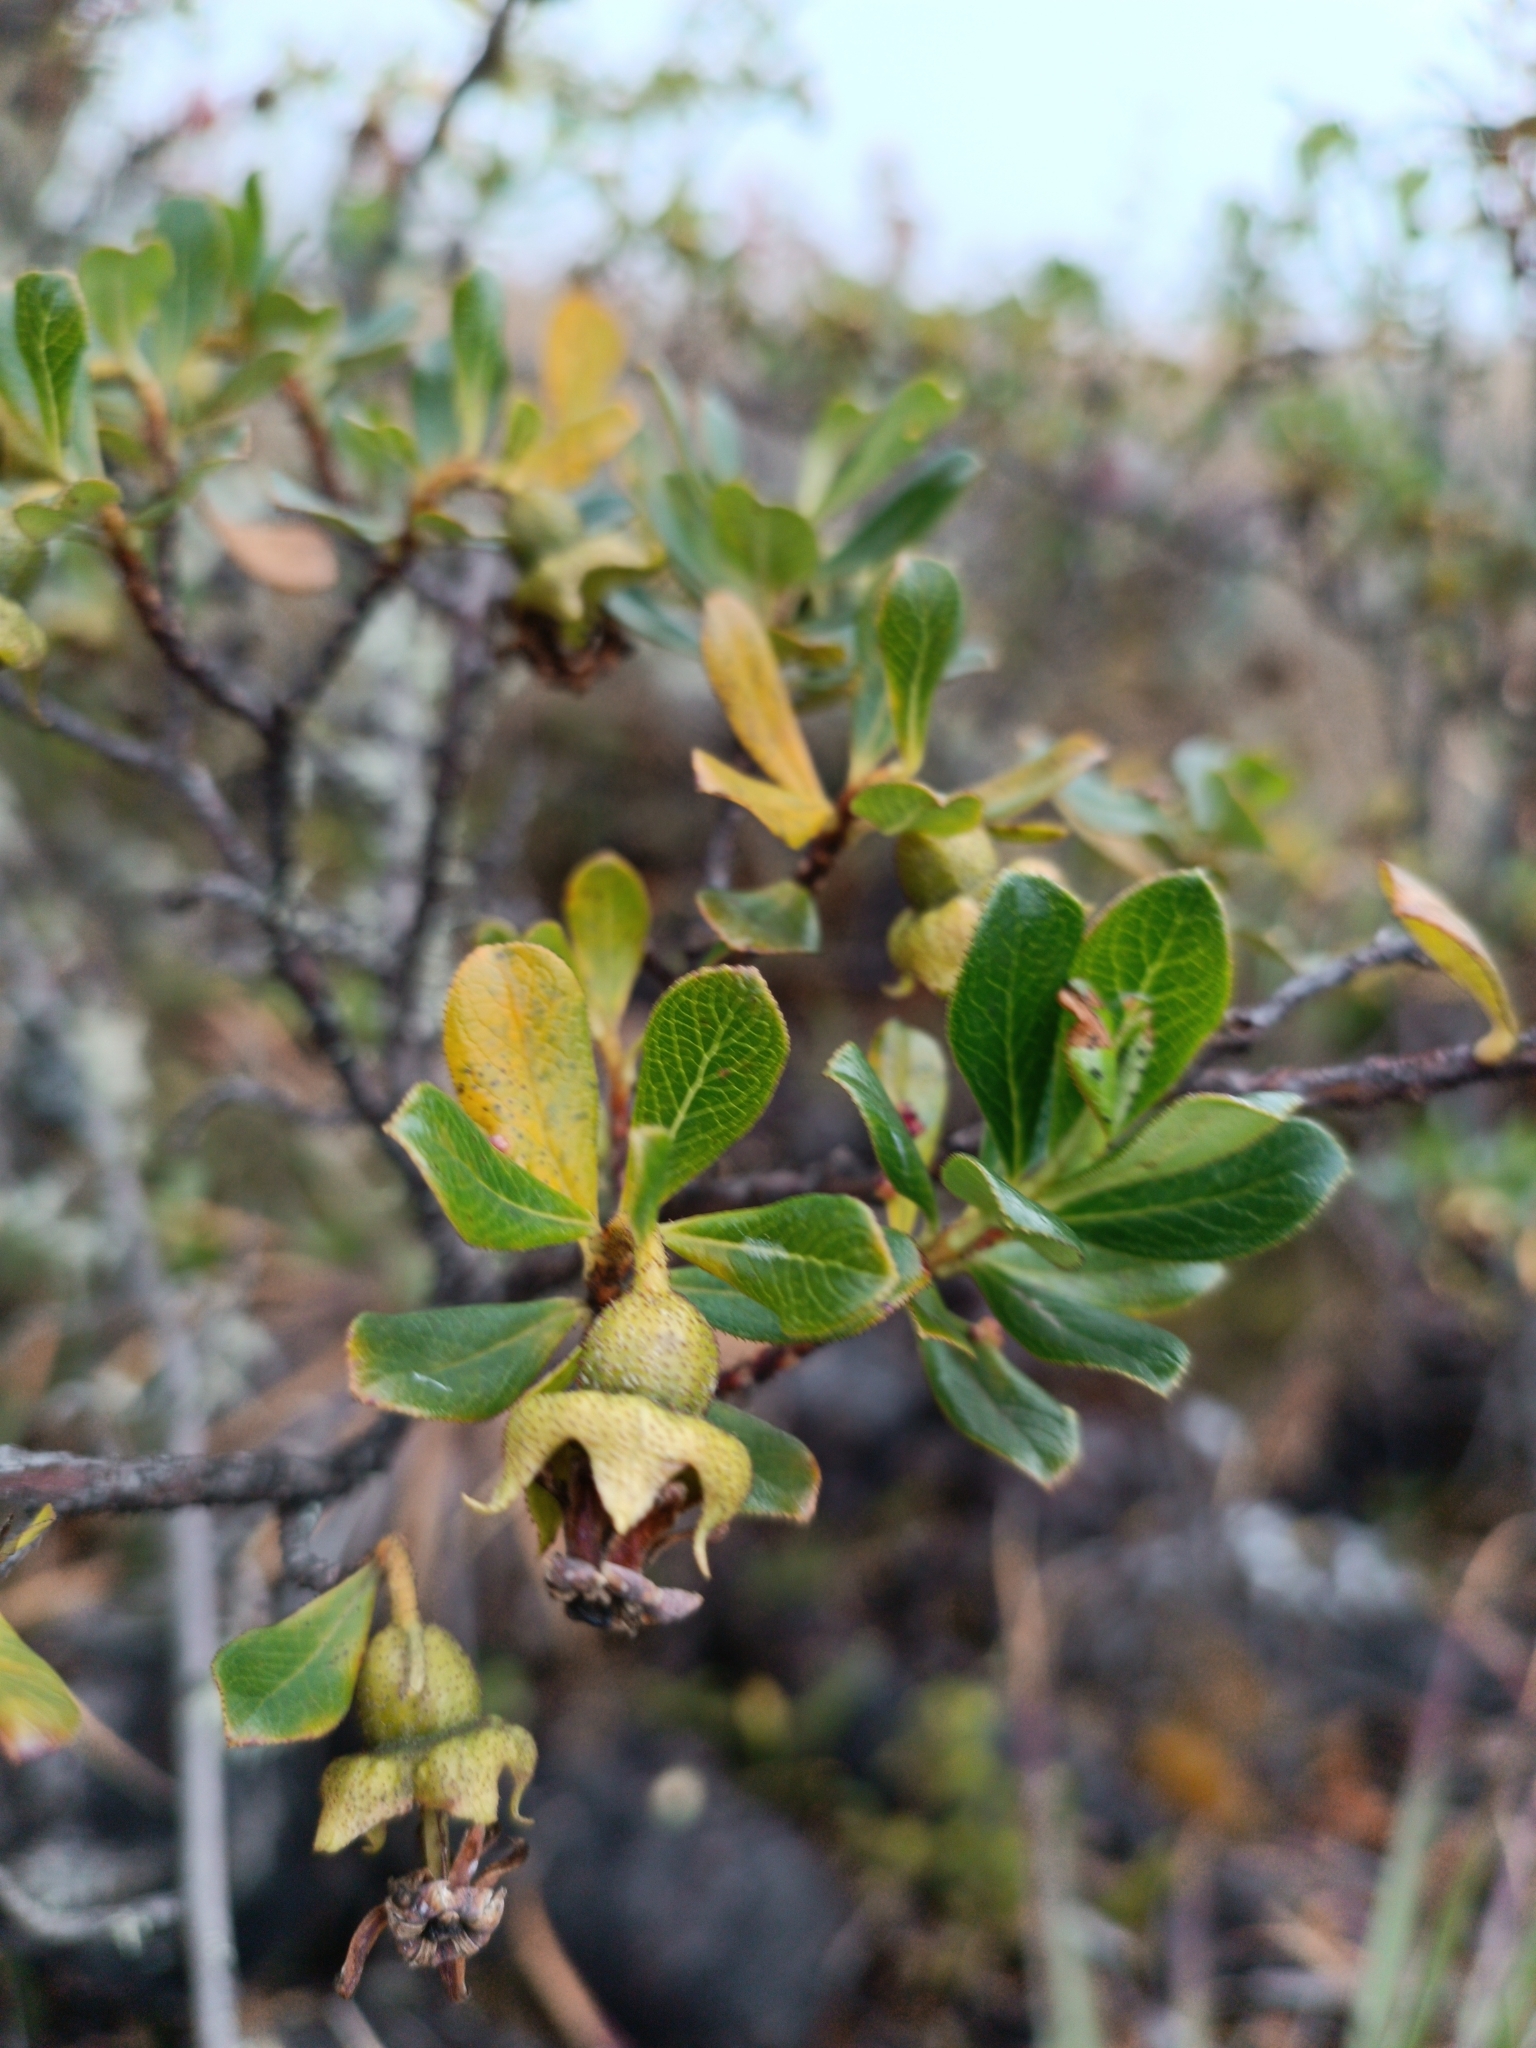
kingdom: Plantae
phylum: Tracheophyta
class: Magnoliopsida
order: Escalloniales
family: Escalloniaceae
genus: Escallonia
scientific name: Escallonia myrtilloides
